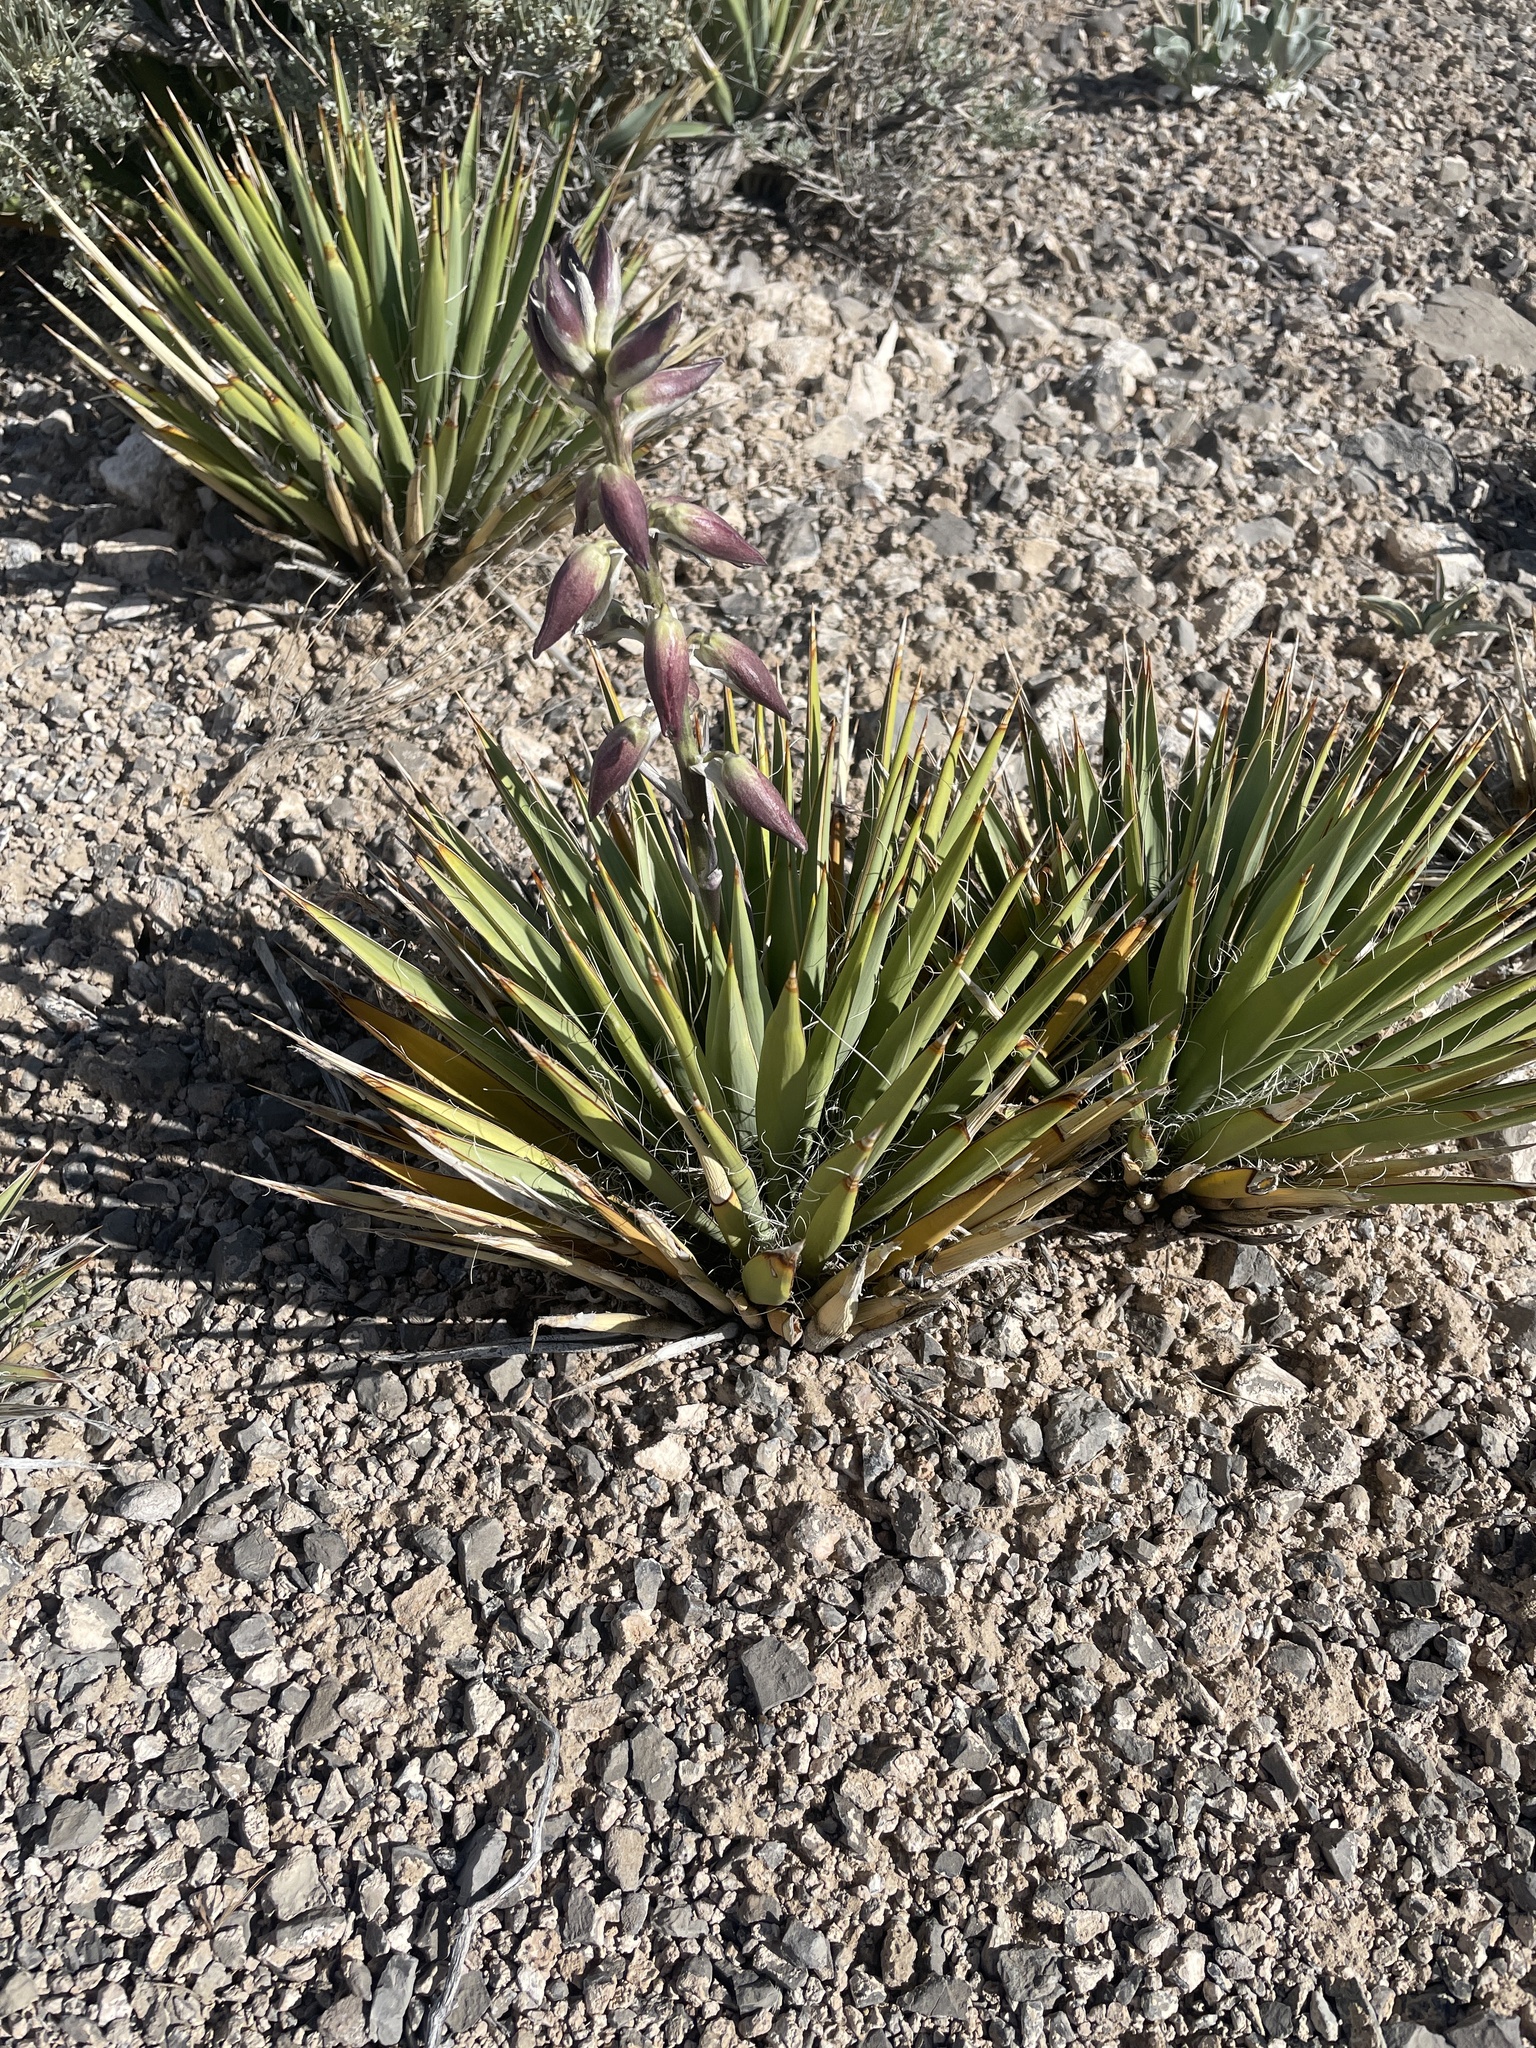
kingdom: Plantae
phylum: Tracheophyta
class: Liliopsida
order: Asparagales
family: Asparagaceae
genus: Yucca
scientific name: Yucca harrimaniae
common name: Harriman's yucca
